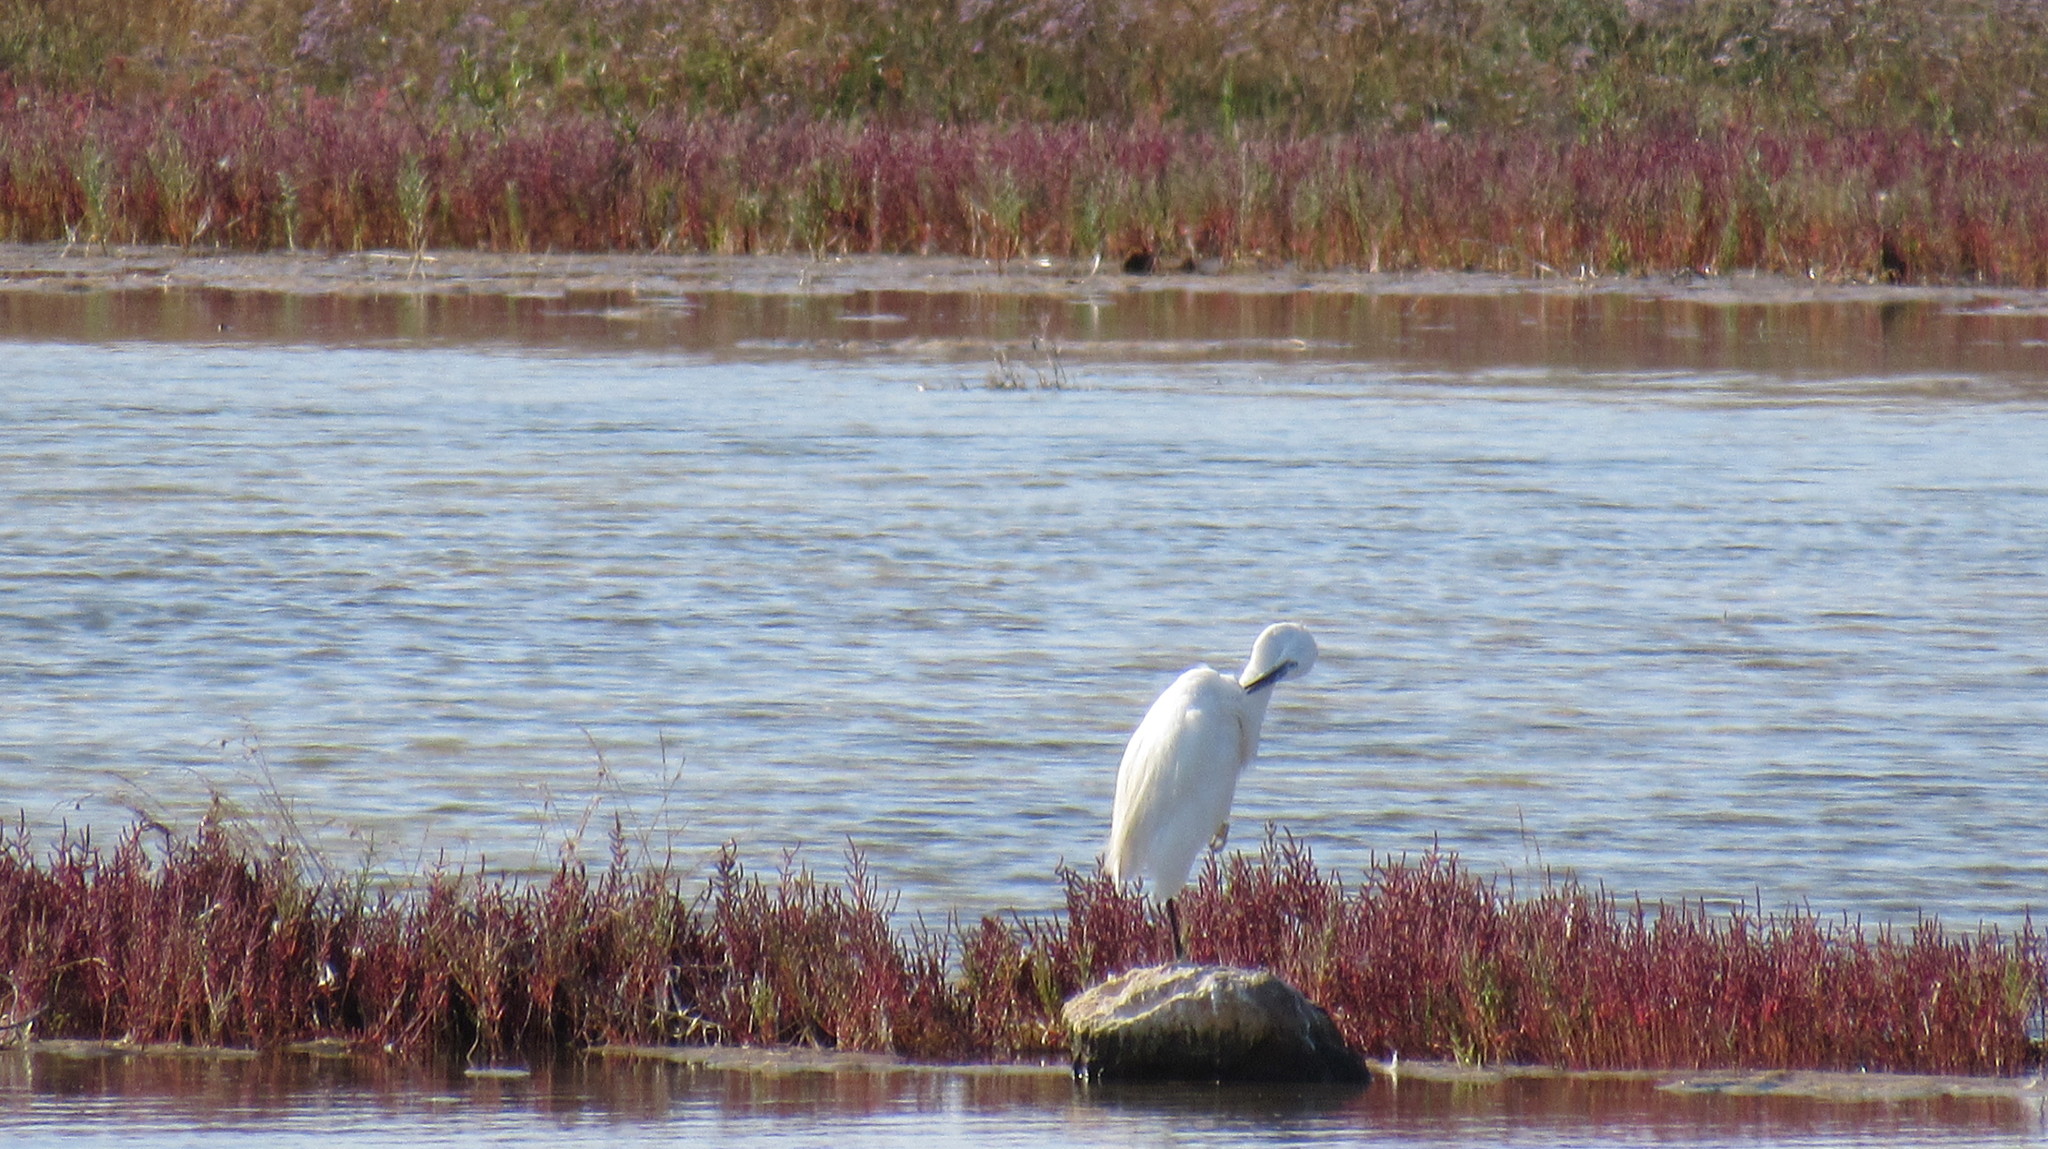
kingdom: Animalia
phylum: Chordata
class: Aves
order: Pelecaniformes
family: Ardeidae
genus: Egretta
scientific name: Egretta garzetta
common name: Little egret
